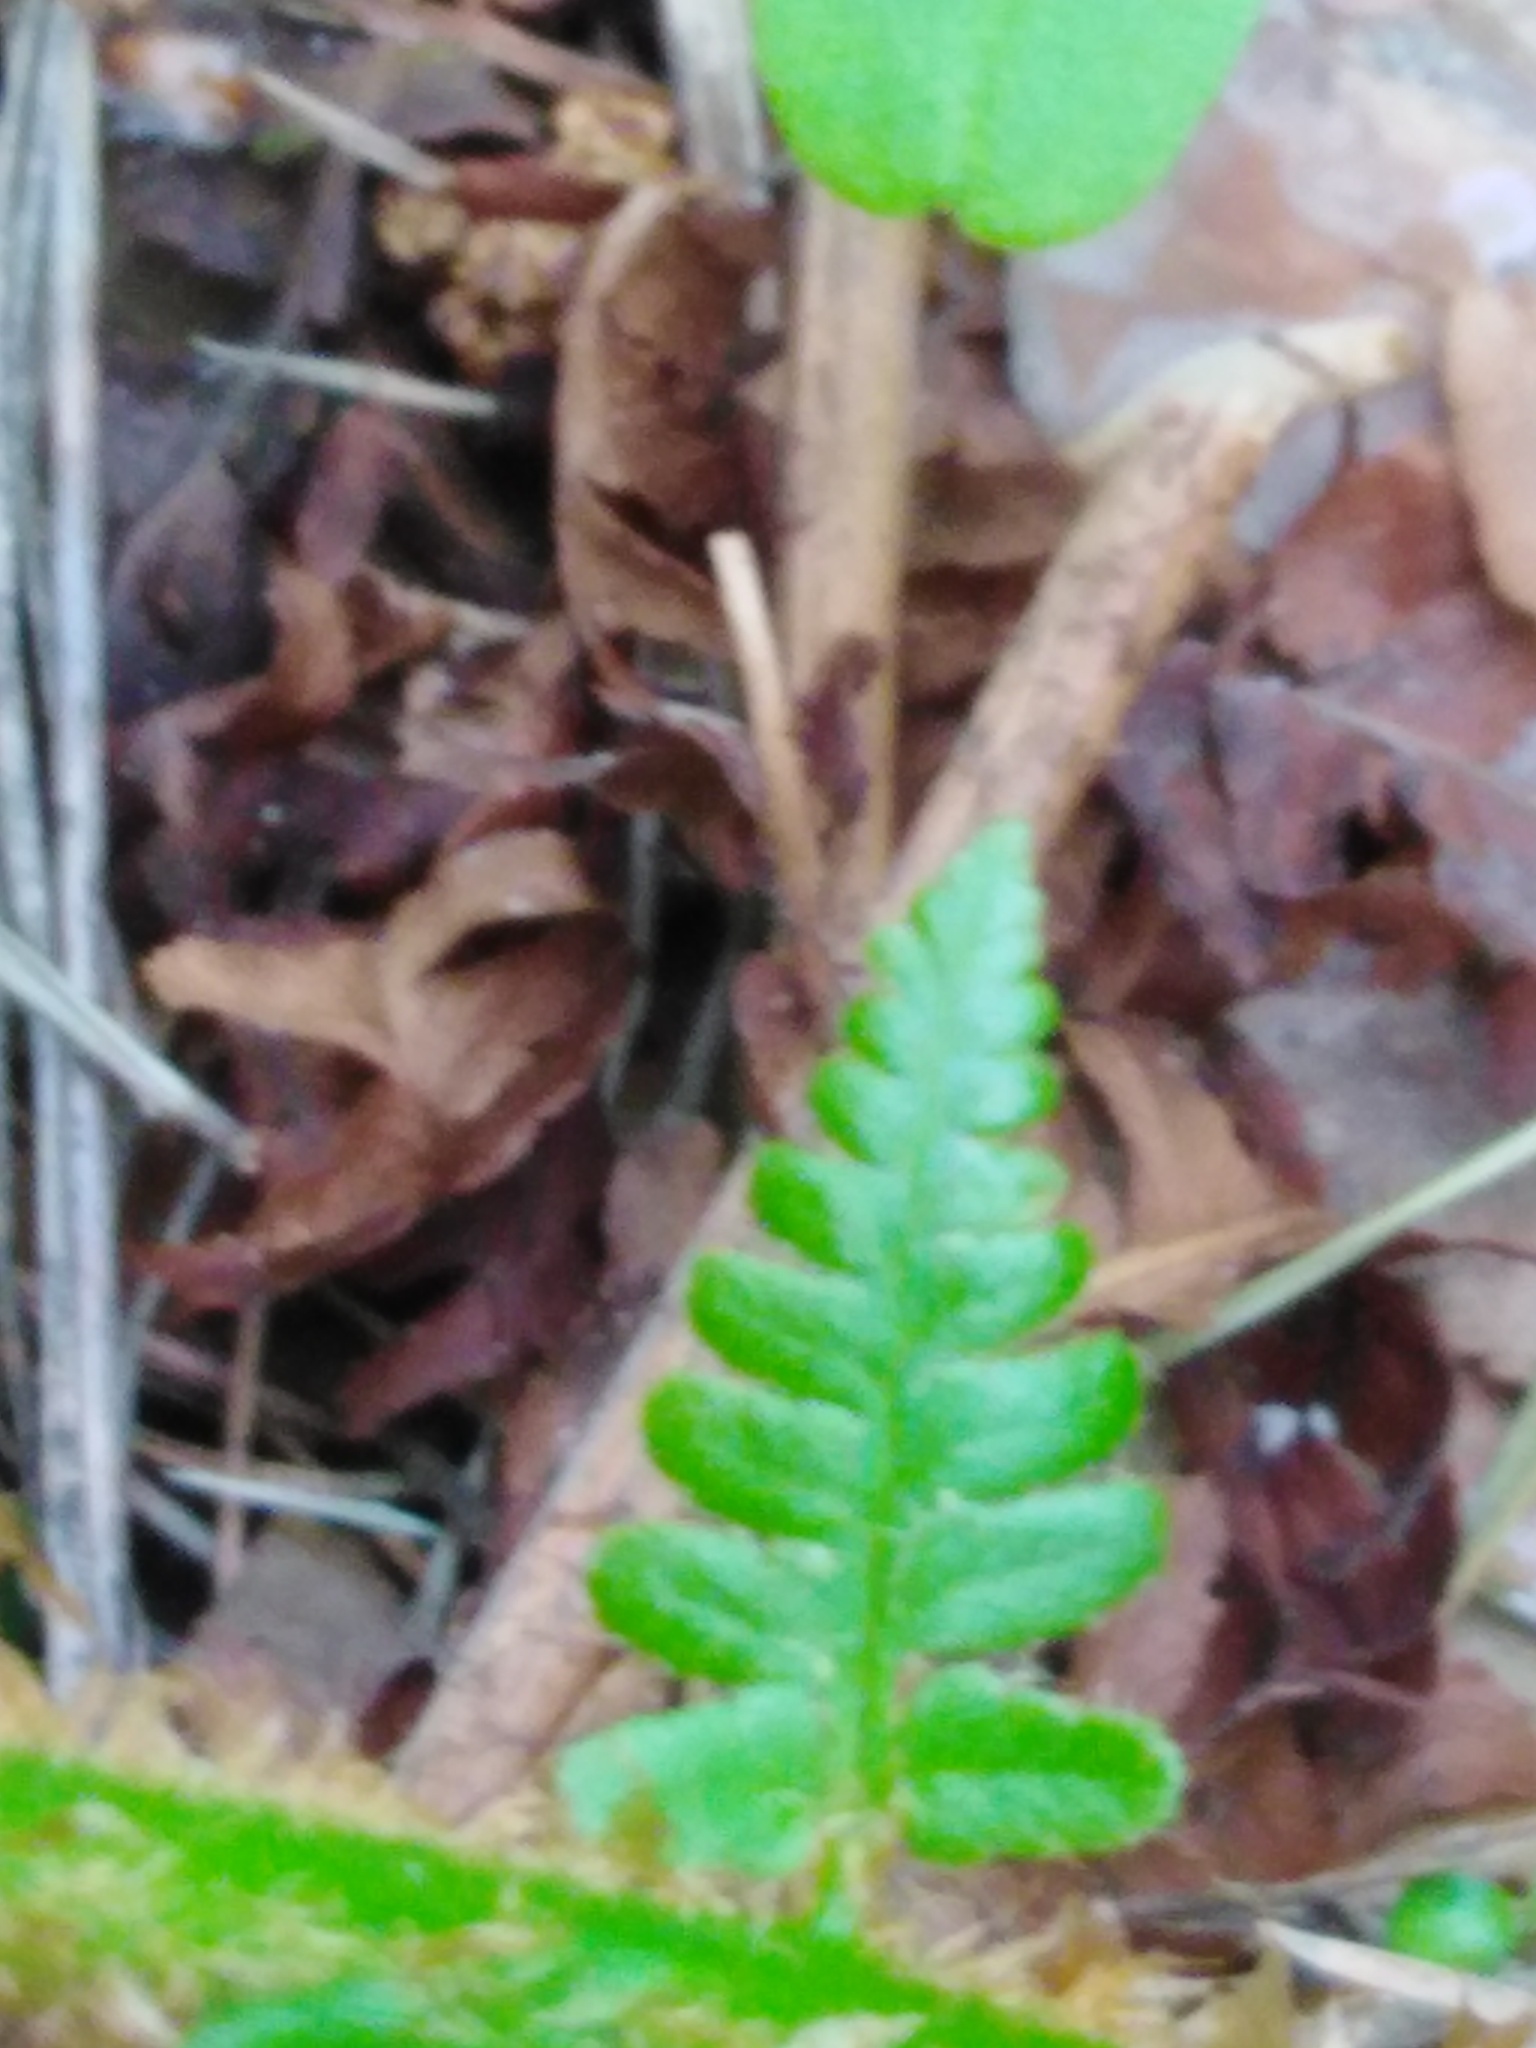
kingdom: Plantae
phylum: Tracheophyta
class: Polypodiopsida
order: Polypodiales
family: Dryopteridaceae
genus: Dryopteris
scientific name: Dryopteris filix-mas
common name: Male fern
